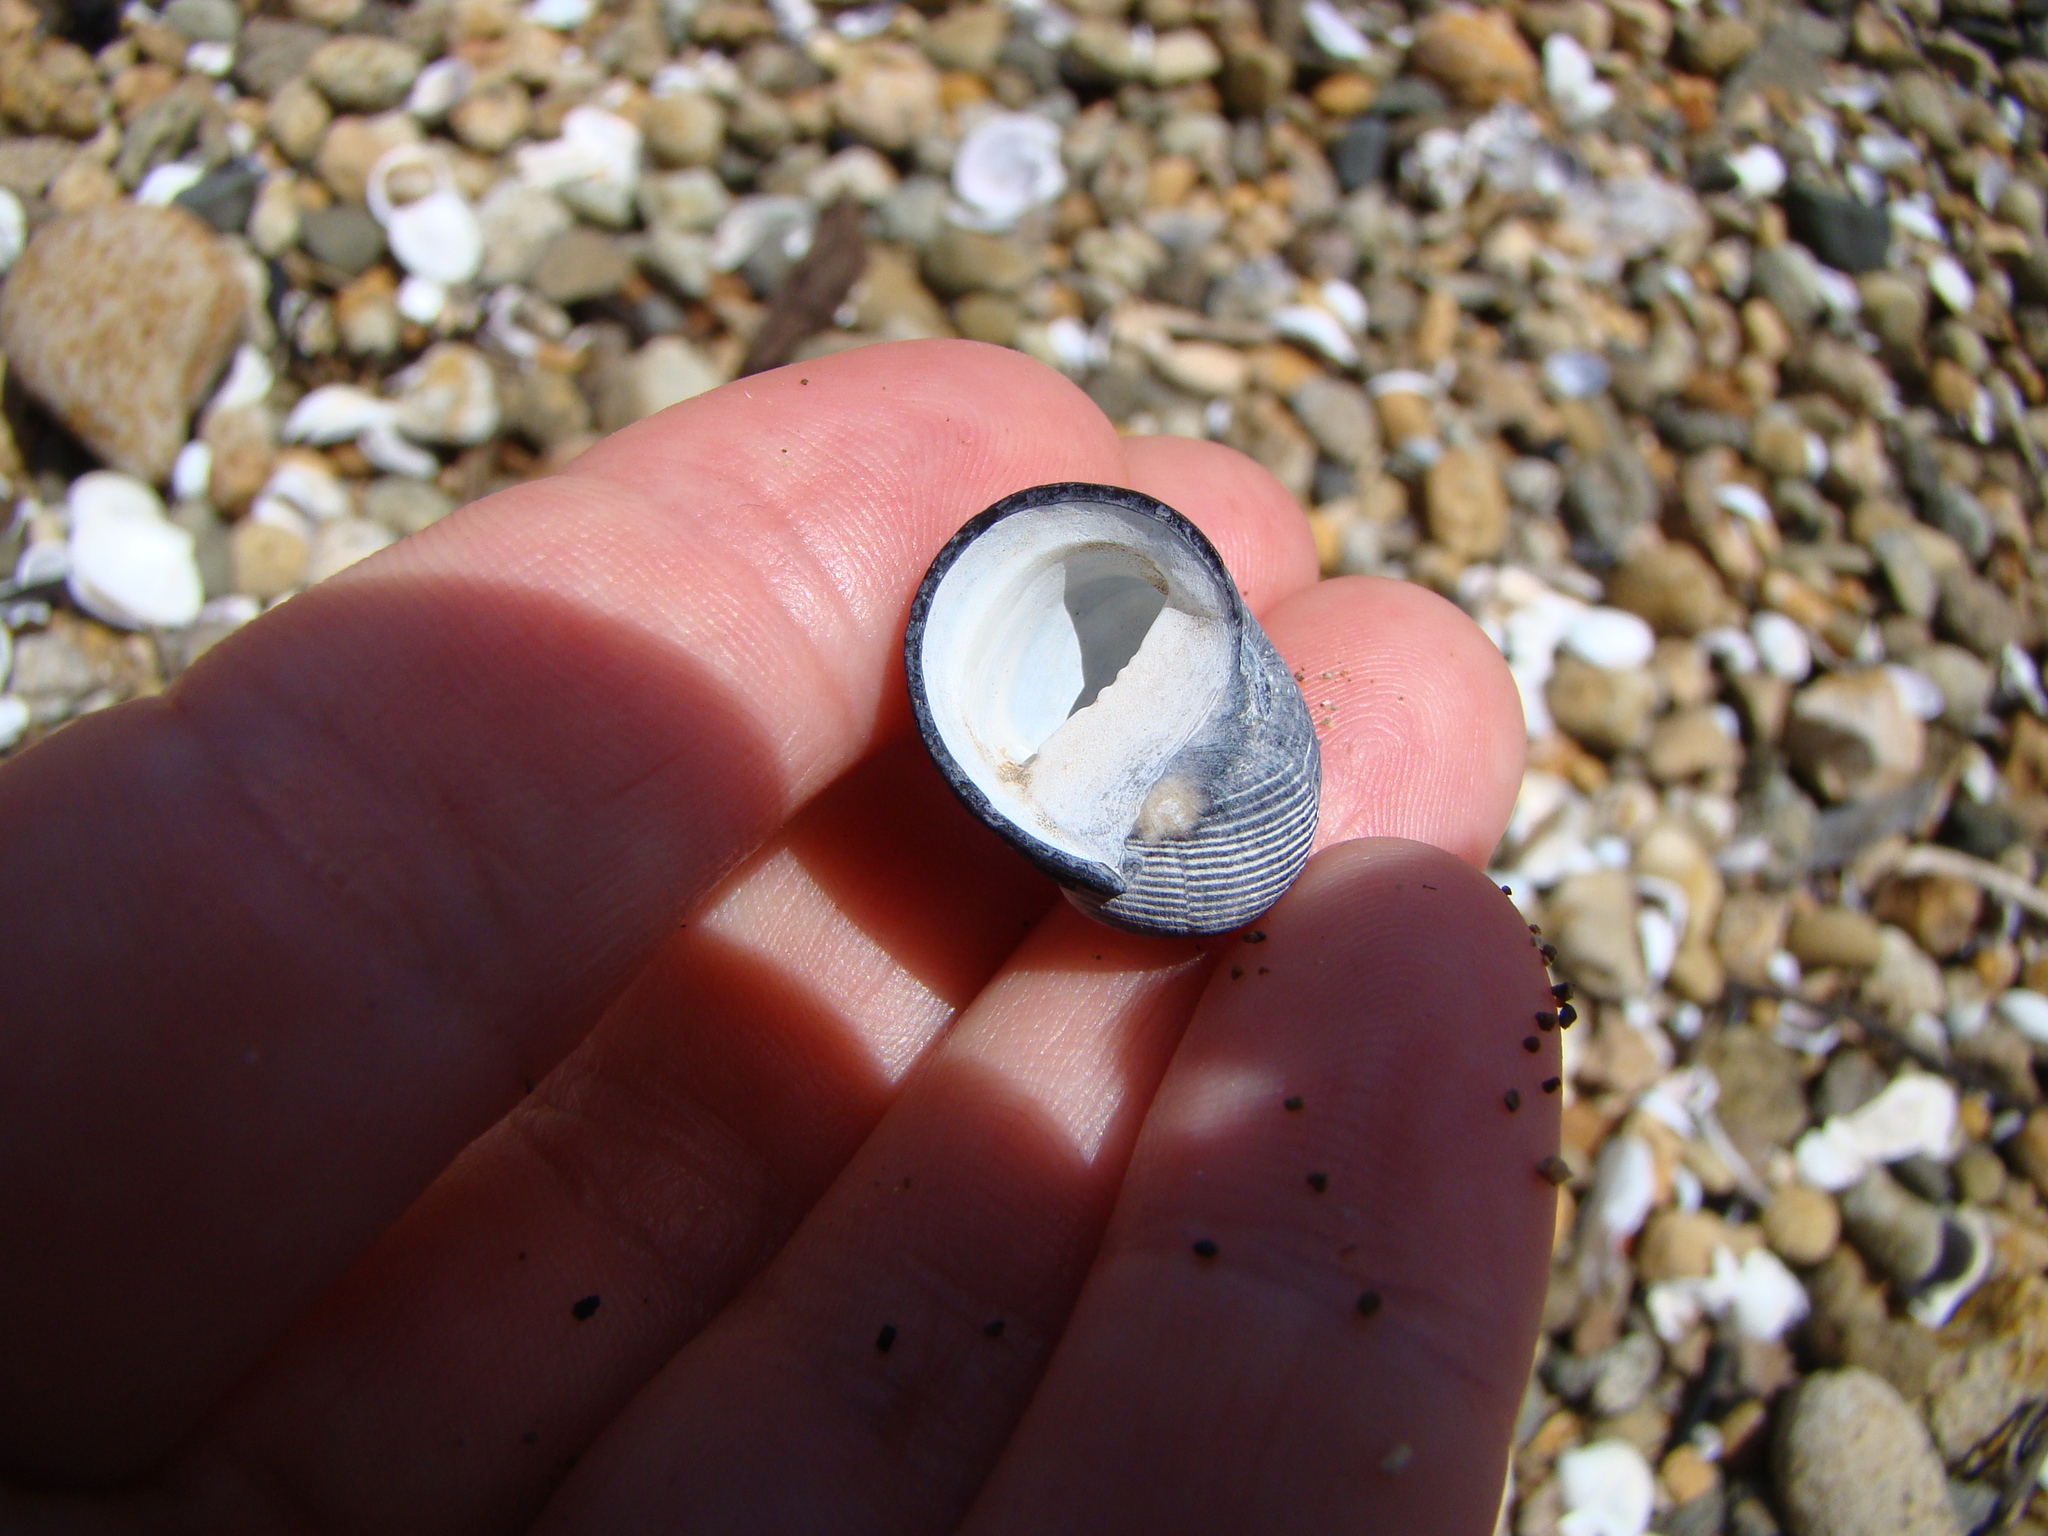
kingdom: Animalia
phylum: Mollusca
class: Gastropoda
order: Cycloneritida
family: Neritidae
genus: Nerita
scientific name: Nerita melanotragus
